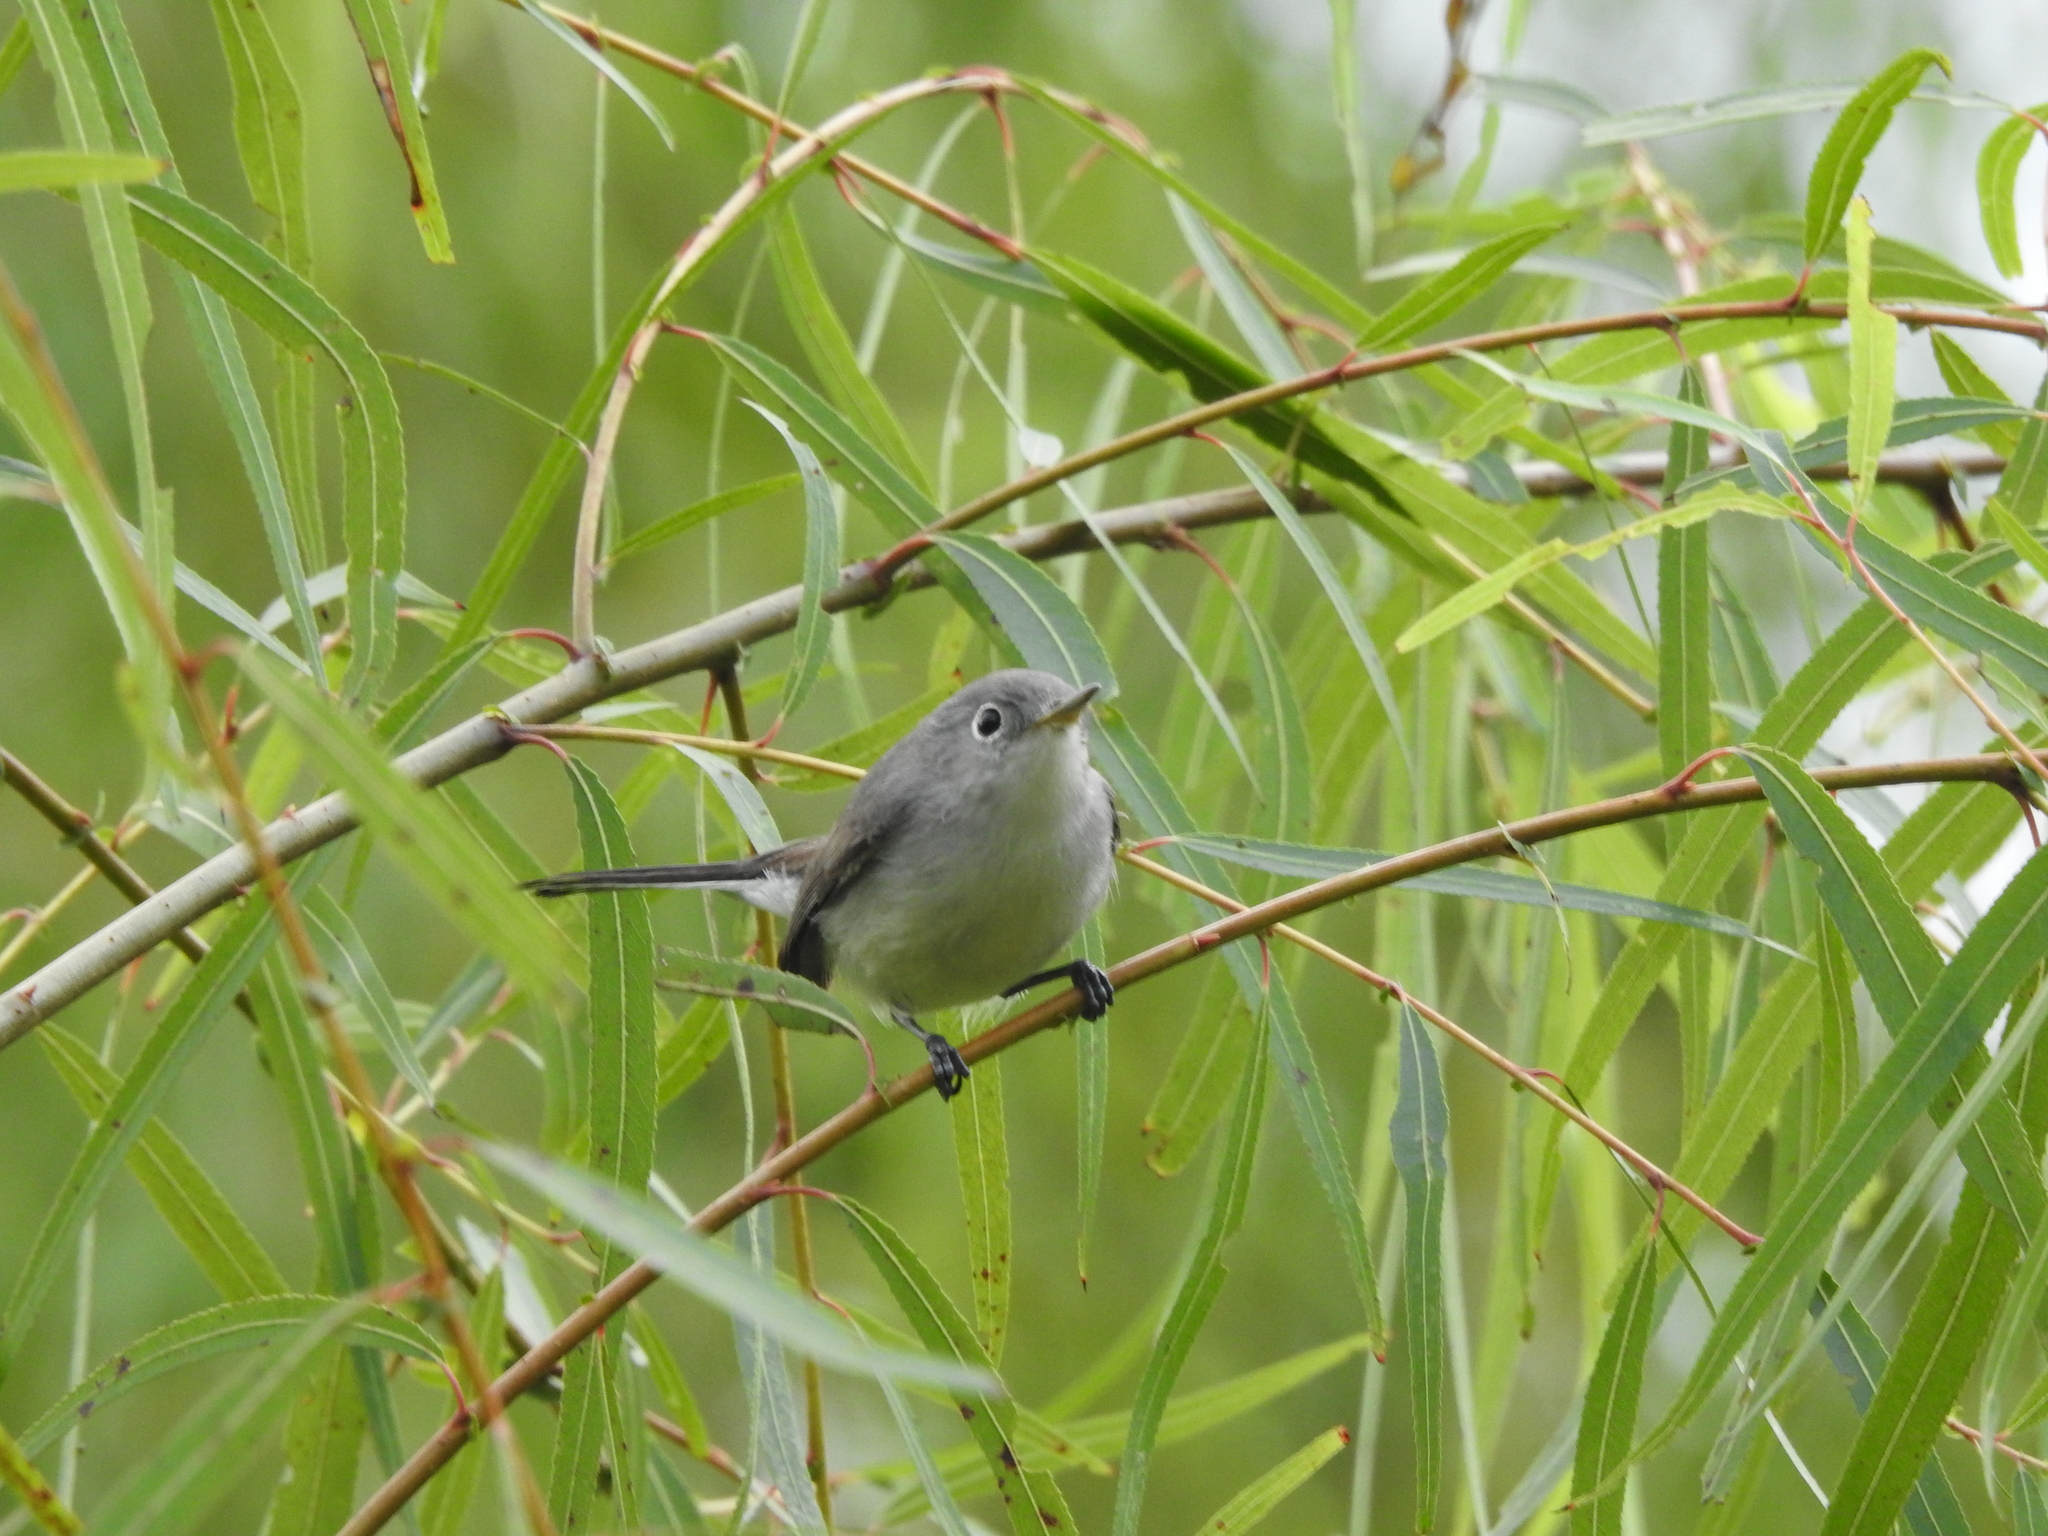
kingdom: Animalia
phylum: Chordata
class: Aves
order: Passeriformes
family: Polioptilidae
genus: Polioptila
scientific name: Polioptila caerulea
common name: Blue-gray gnatcatcher
